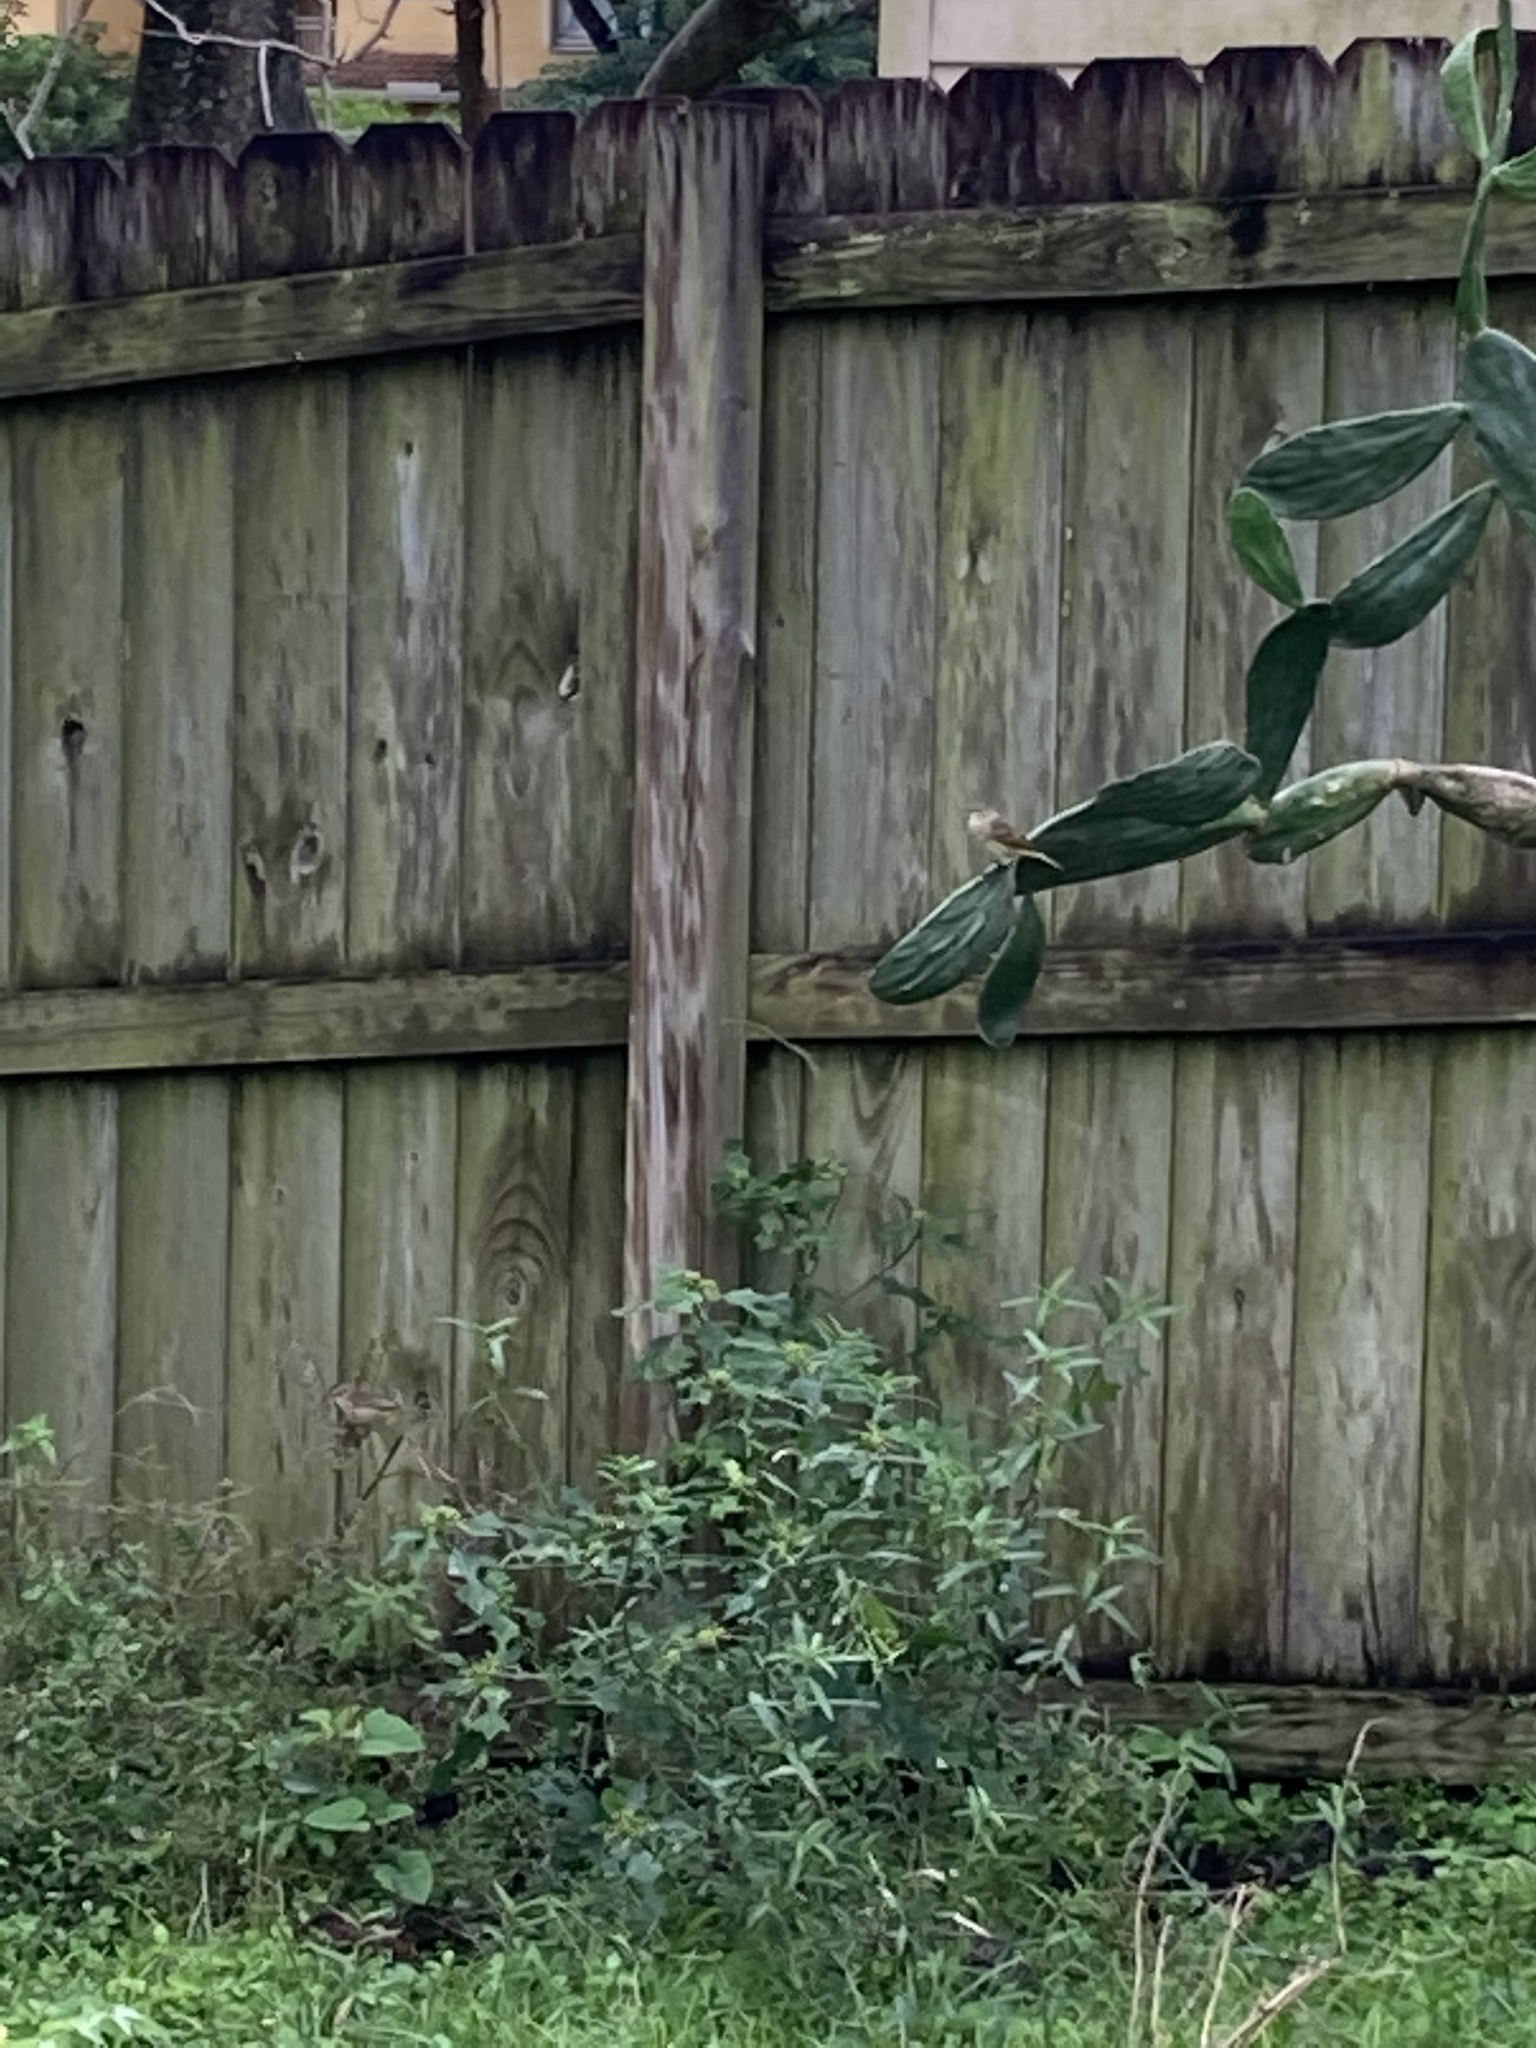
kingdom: Animalia
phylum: Chordata
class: Aves
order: Passeriformes
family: Parulidae
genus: Setophaga
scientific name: Setophaga palmarum
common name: Palm warbler
